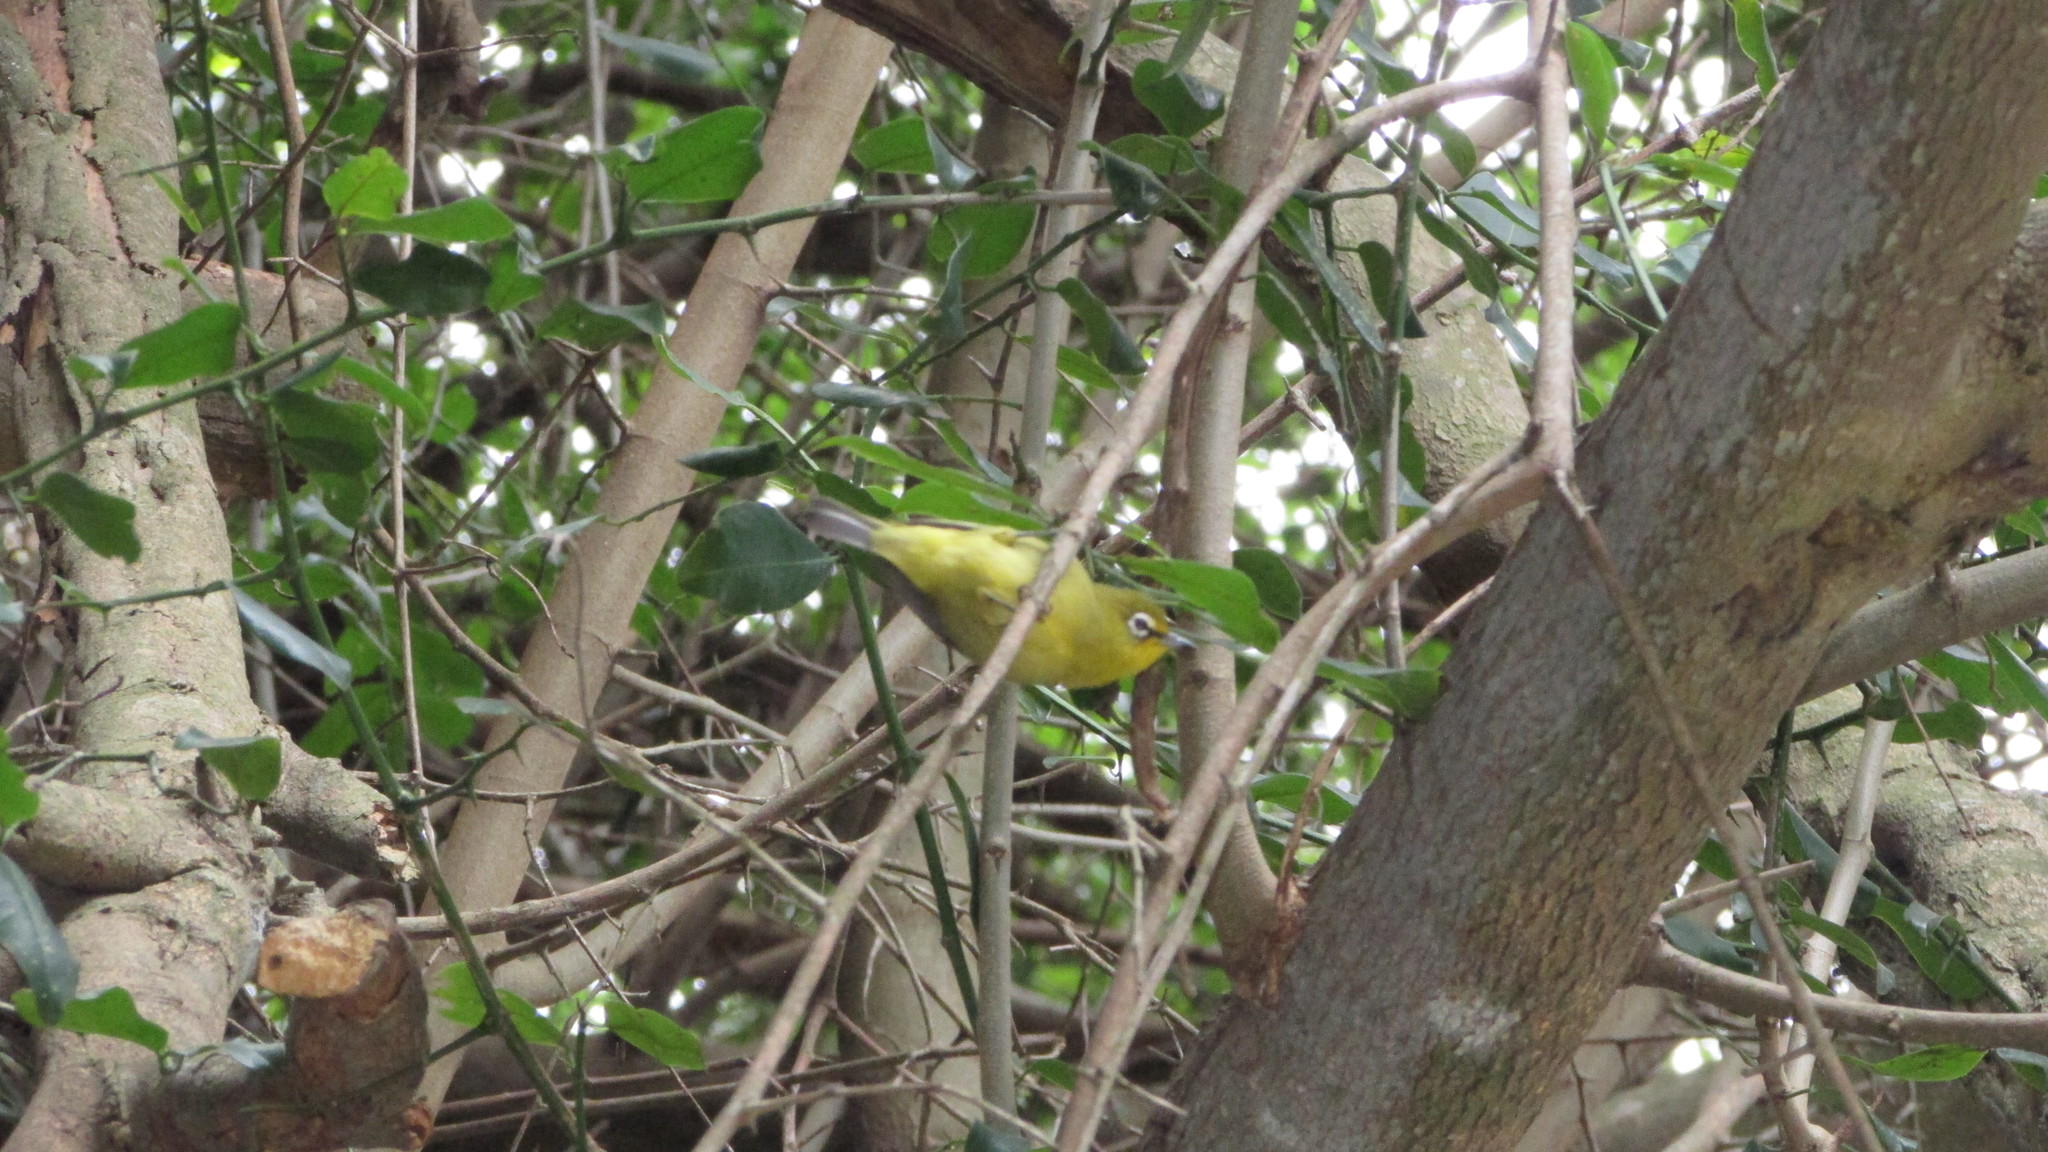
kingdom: Animalia
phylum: Chordata
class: Aves
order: Passeriformes
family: Zosteropidae
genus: Zosterops
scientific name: Zosterops virens
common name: Cape white-eye
